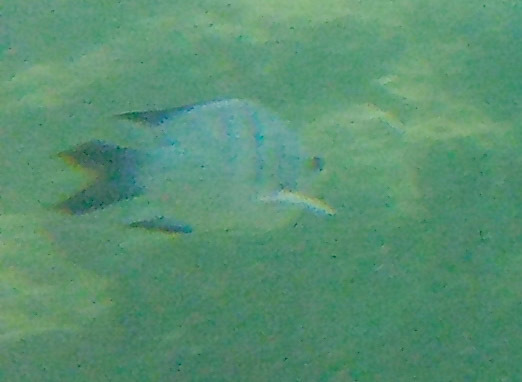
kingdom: Animalia
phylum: Chordata
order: Perciformes
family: Pomacentridae
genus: Abudefduf
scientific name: Abudefduf whitleyi
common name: Whitley's seargent
